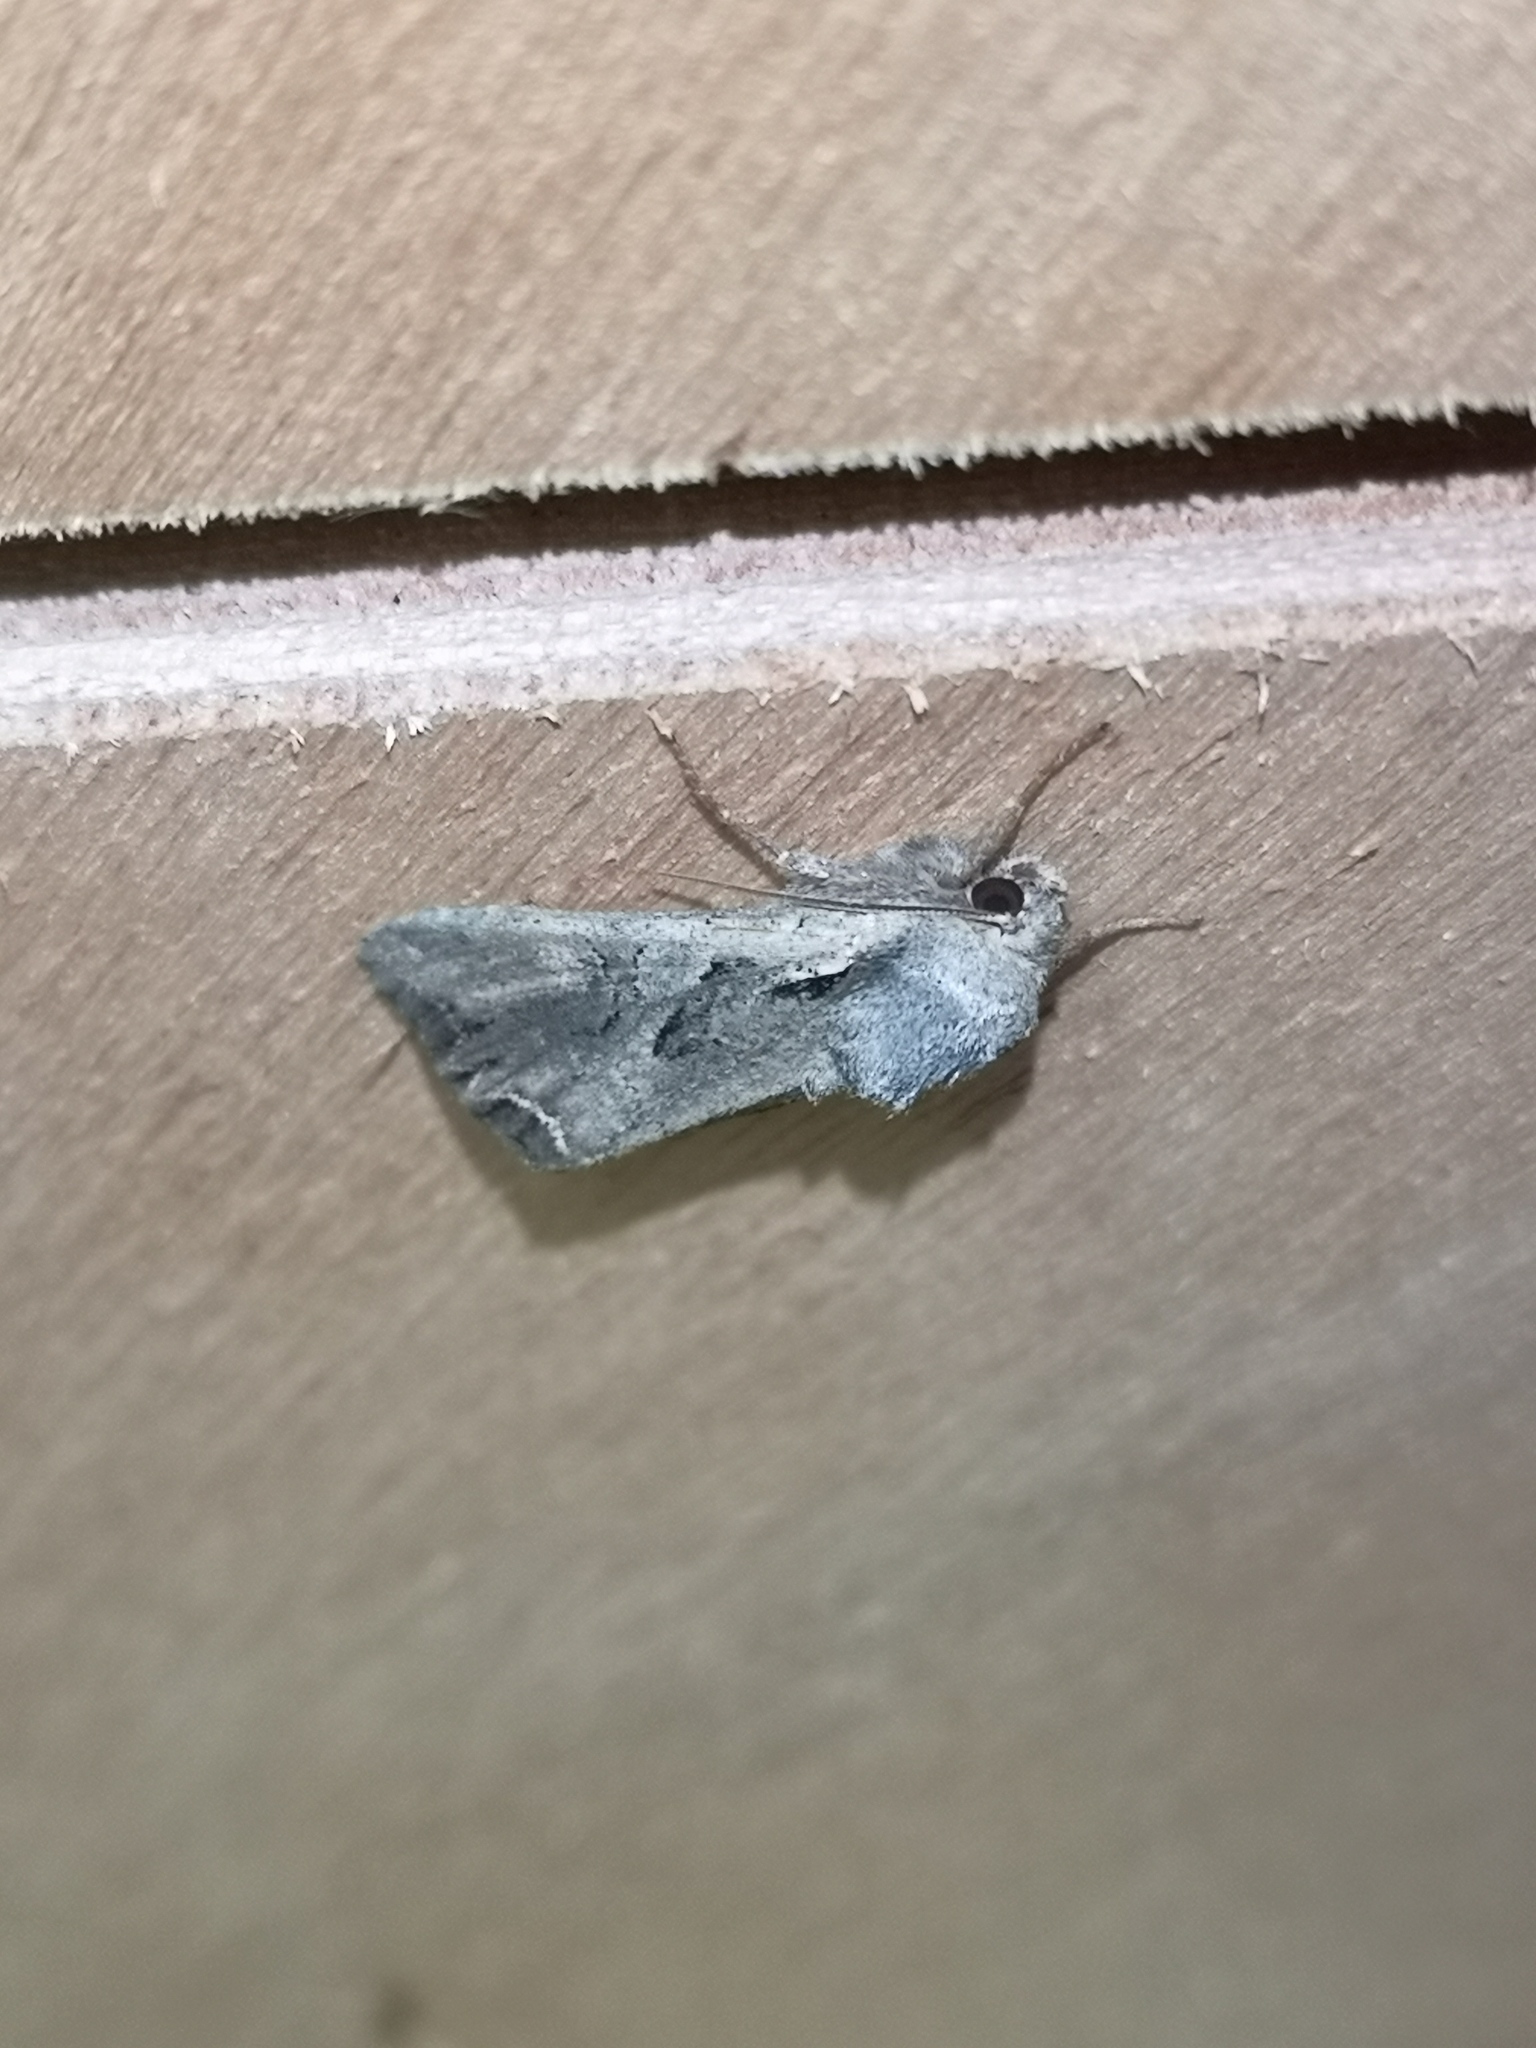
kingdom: Animalia
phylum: Arthropoda
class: Insecta
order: Lepidoptera
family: Noctuidae
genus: Lacanobia
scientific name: Lacanobia suasa
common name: Dog's tooth
